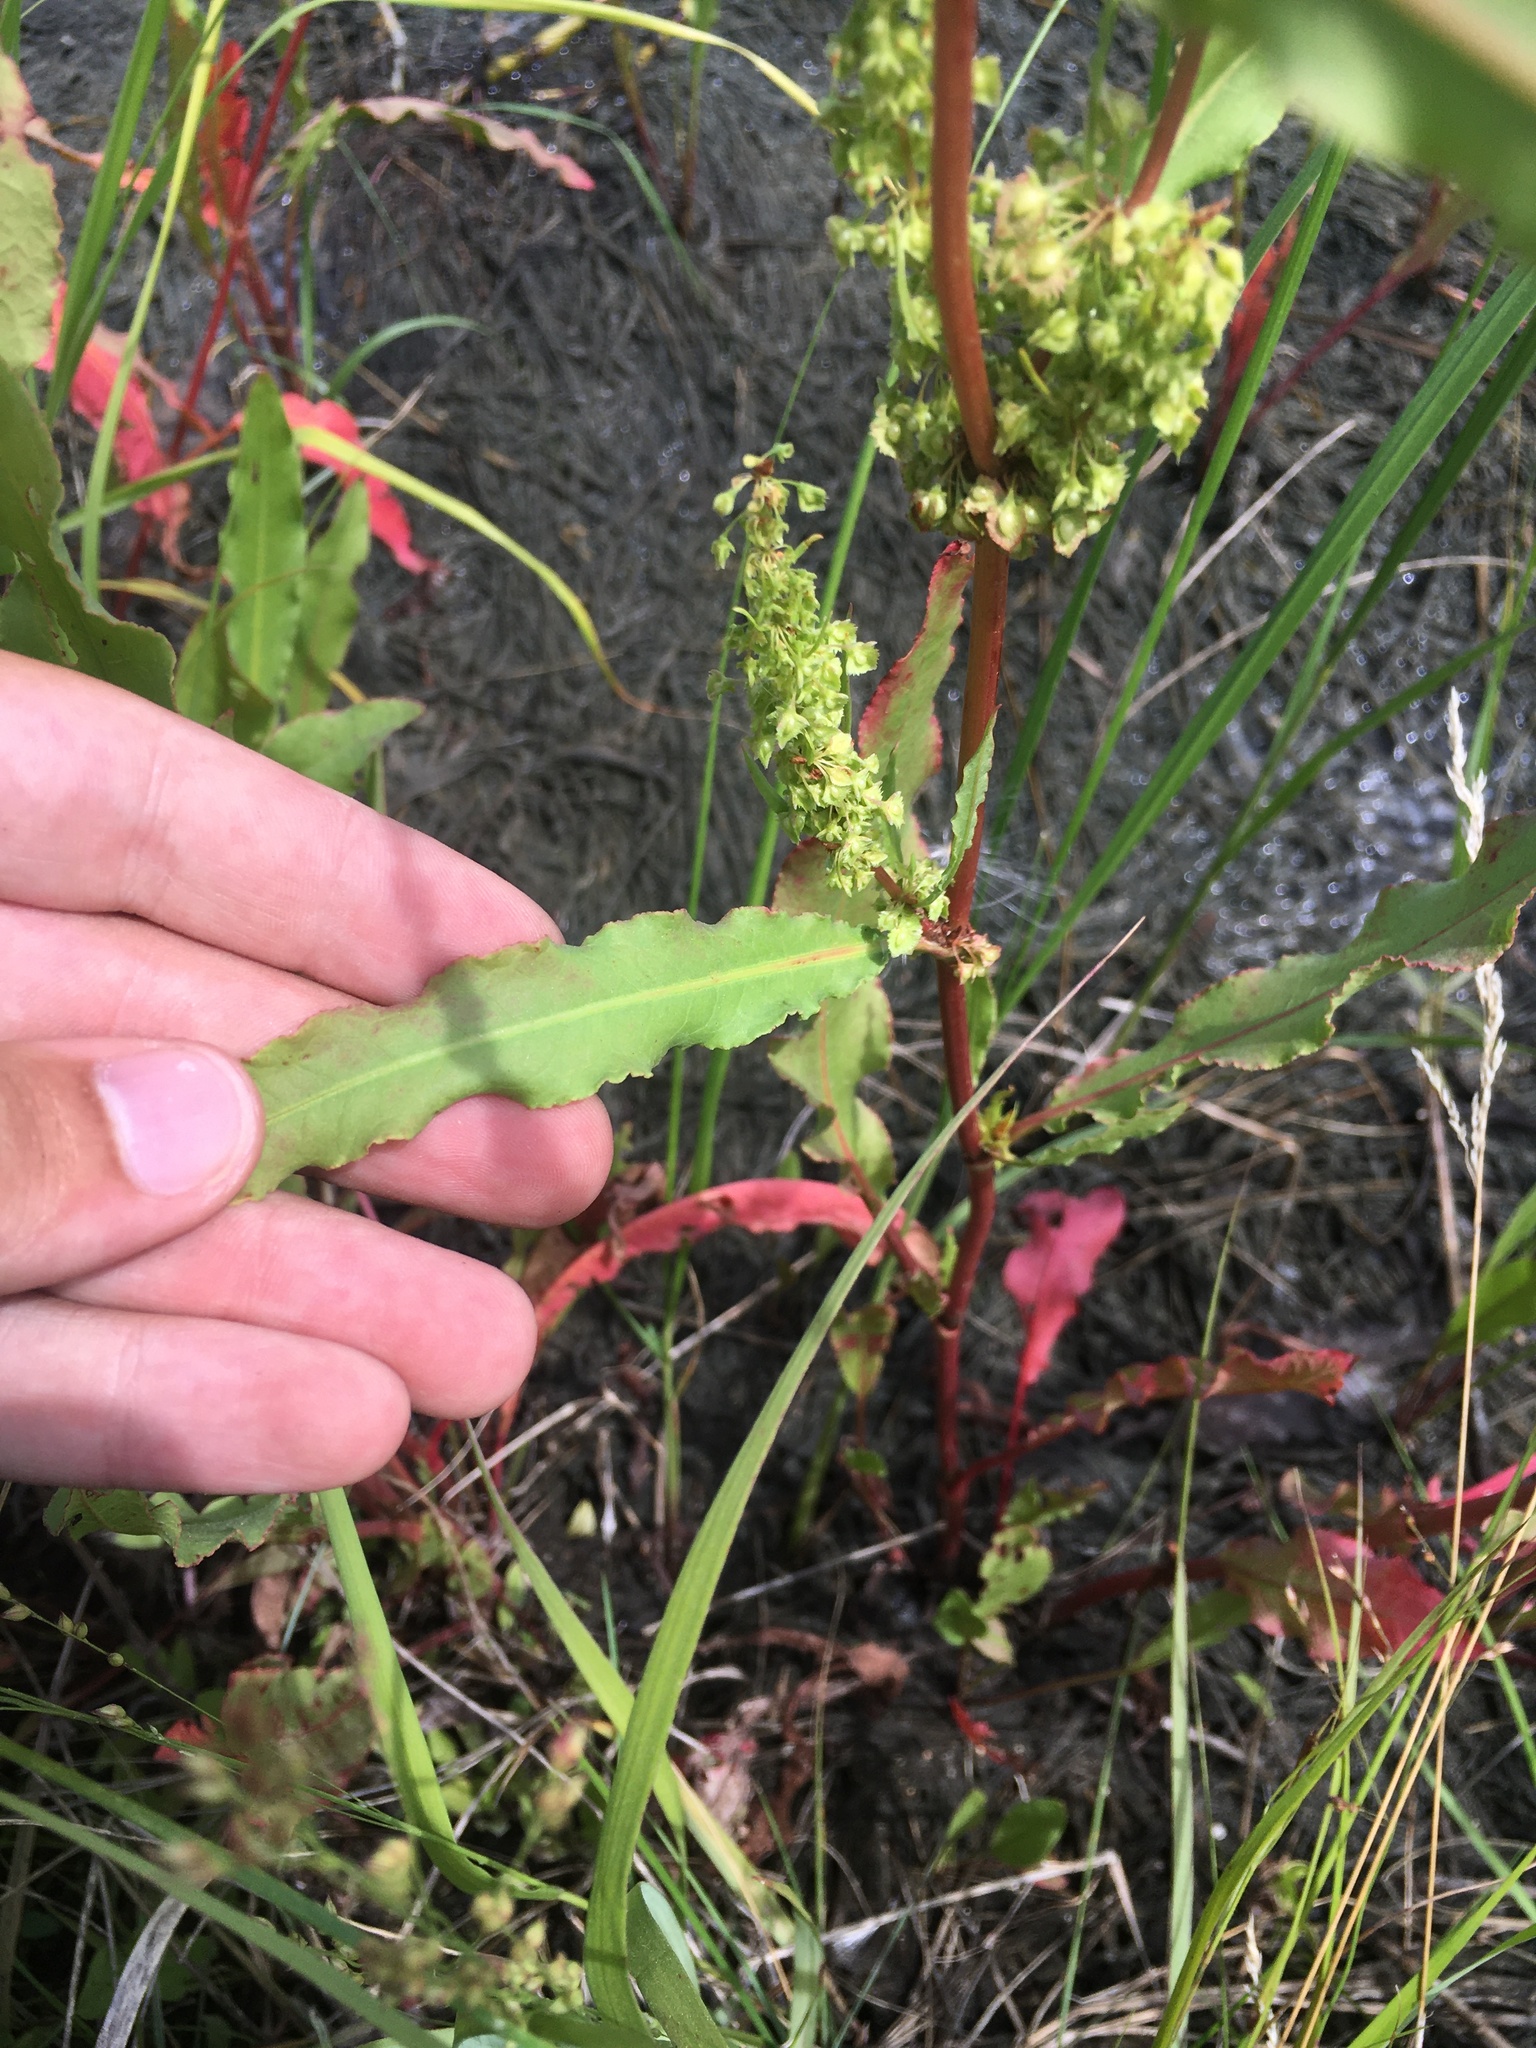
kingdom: Plantae
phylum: Tracheophyta
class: Magnoliopsida
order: Caryophyllales
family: Polygonaceae
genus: Rumex
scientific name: Rumex stenophyllus
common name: Narrowleaf dock
